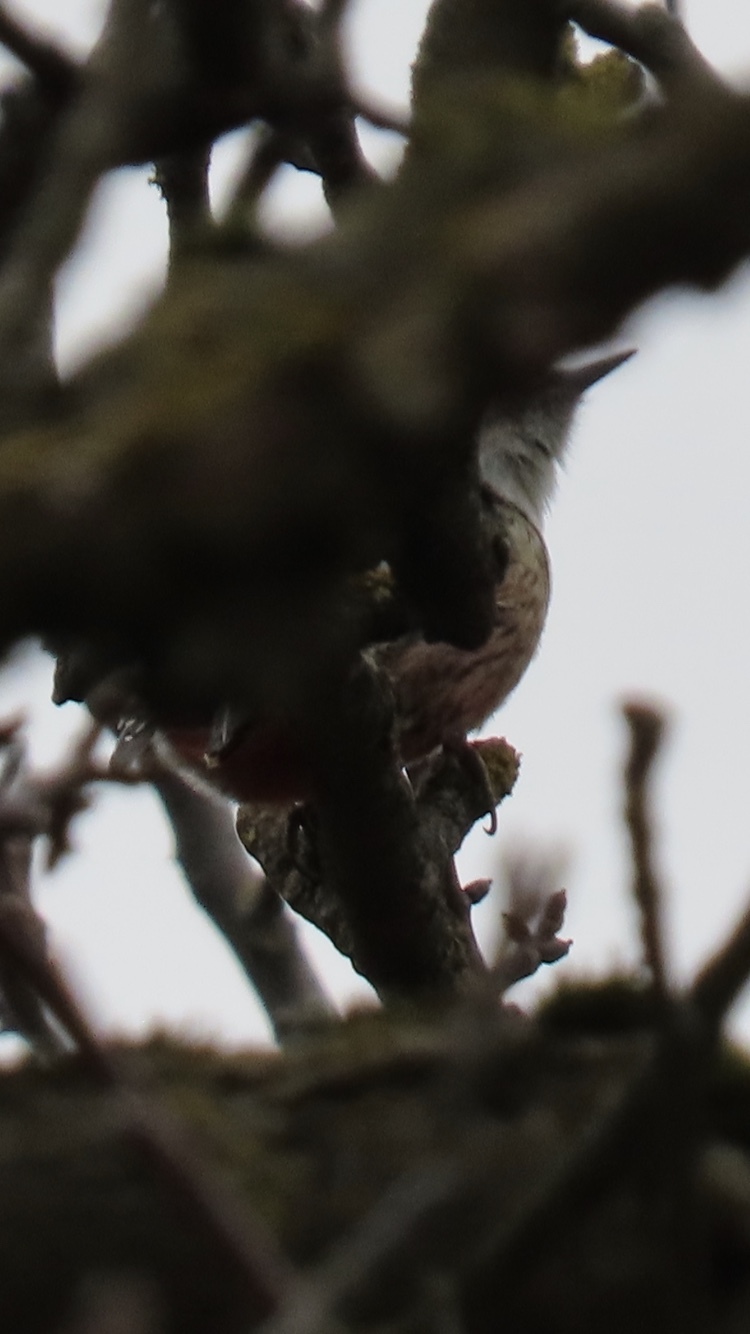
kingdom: Animalia
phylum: Chordata
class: Aves
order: Piciformes
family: Picidae
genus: Dendrocoptes
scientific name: Dendrocoptes medius
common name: Middle spotted woodpecker
